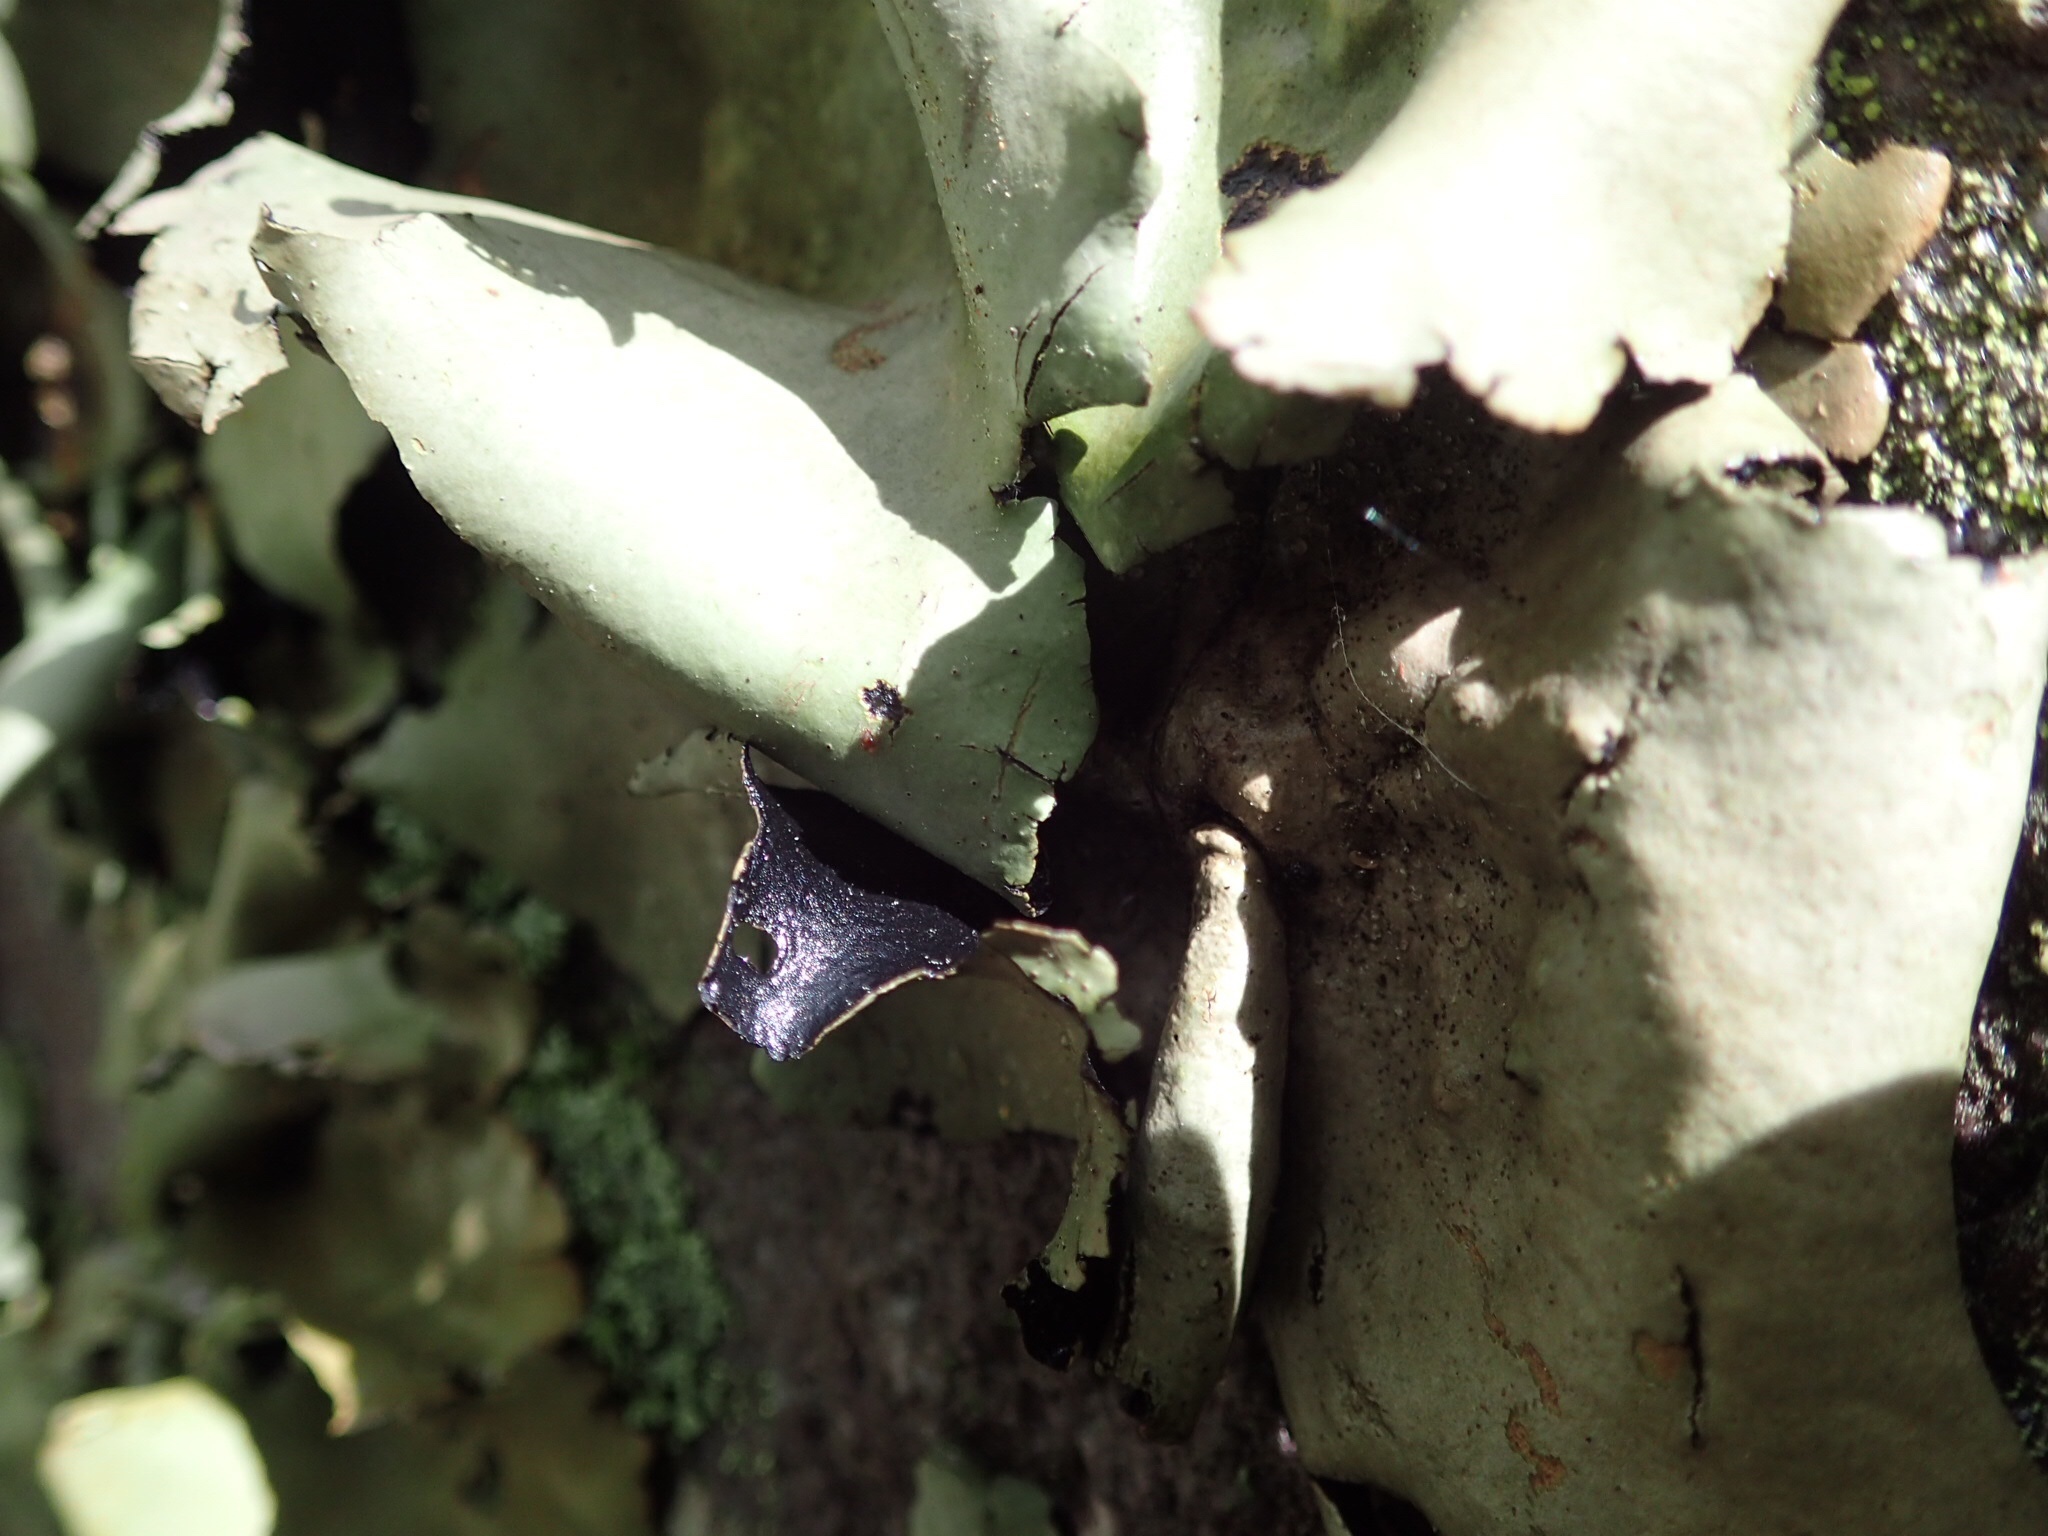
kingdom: Fungi
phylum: Ascomycota
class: Lecanoromycetes
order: Umbilicariales
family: Umbilicariaceae
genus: Umbilicaria
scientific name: Umbilicaria mammulata
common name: Smooth rock tripe
